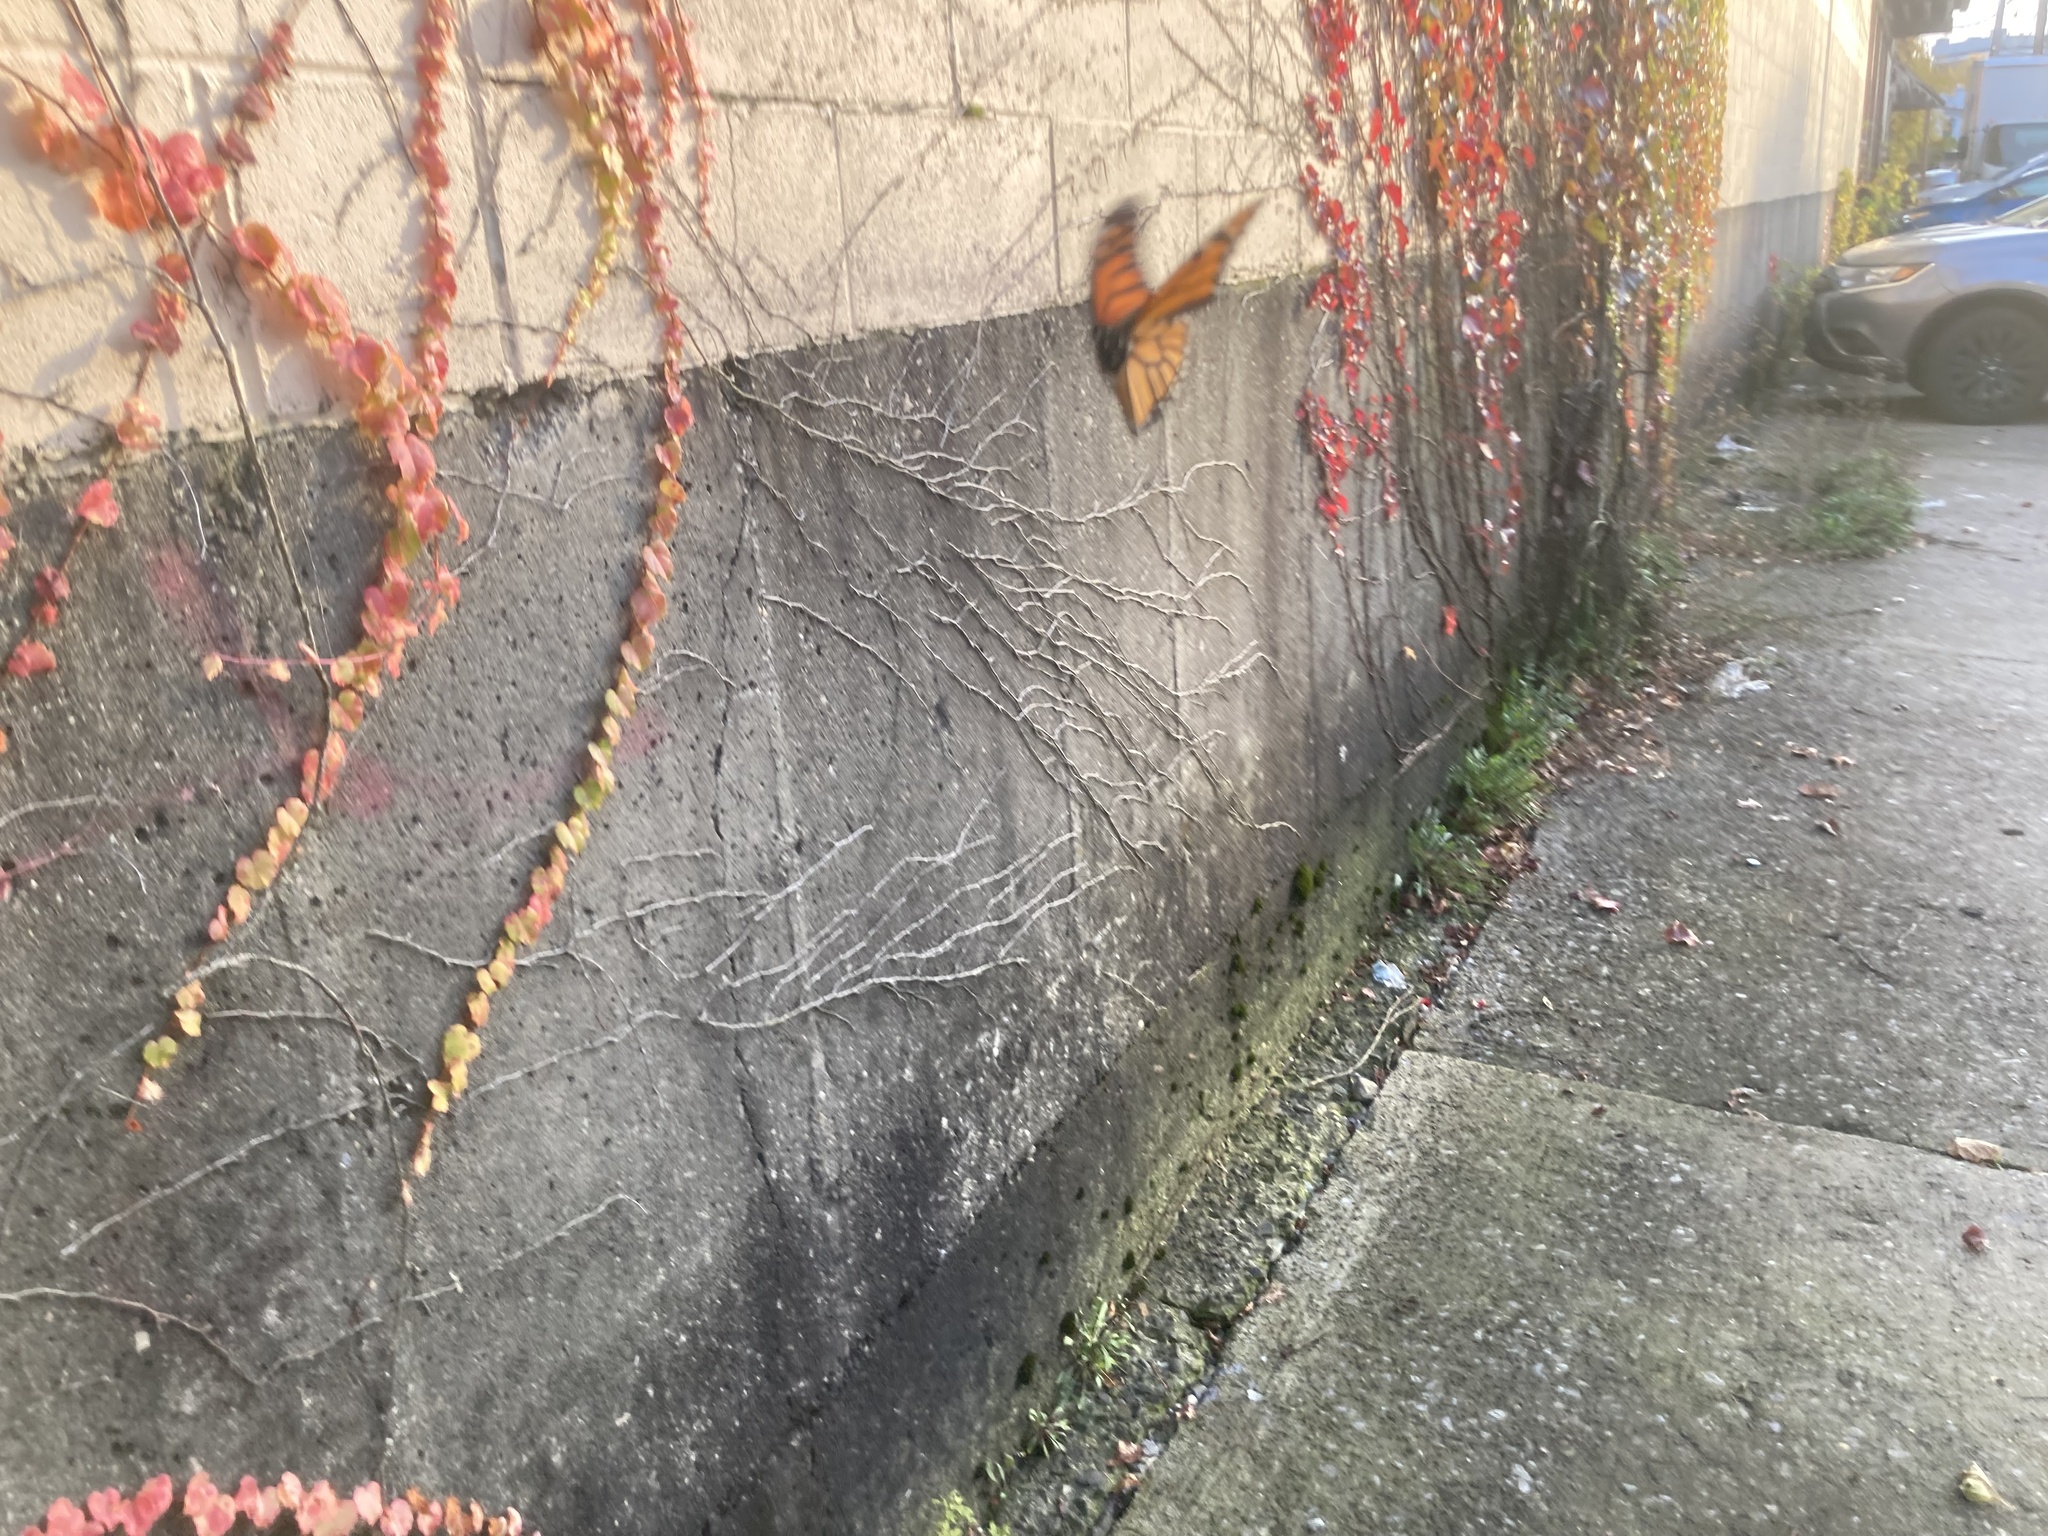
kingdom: Animalia
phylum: Arthropoda
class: Insecta
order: Lepidoptera
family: Nymphalidae
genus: Danaus
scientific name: Danaus plexippus
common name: Monarch
